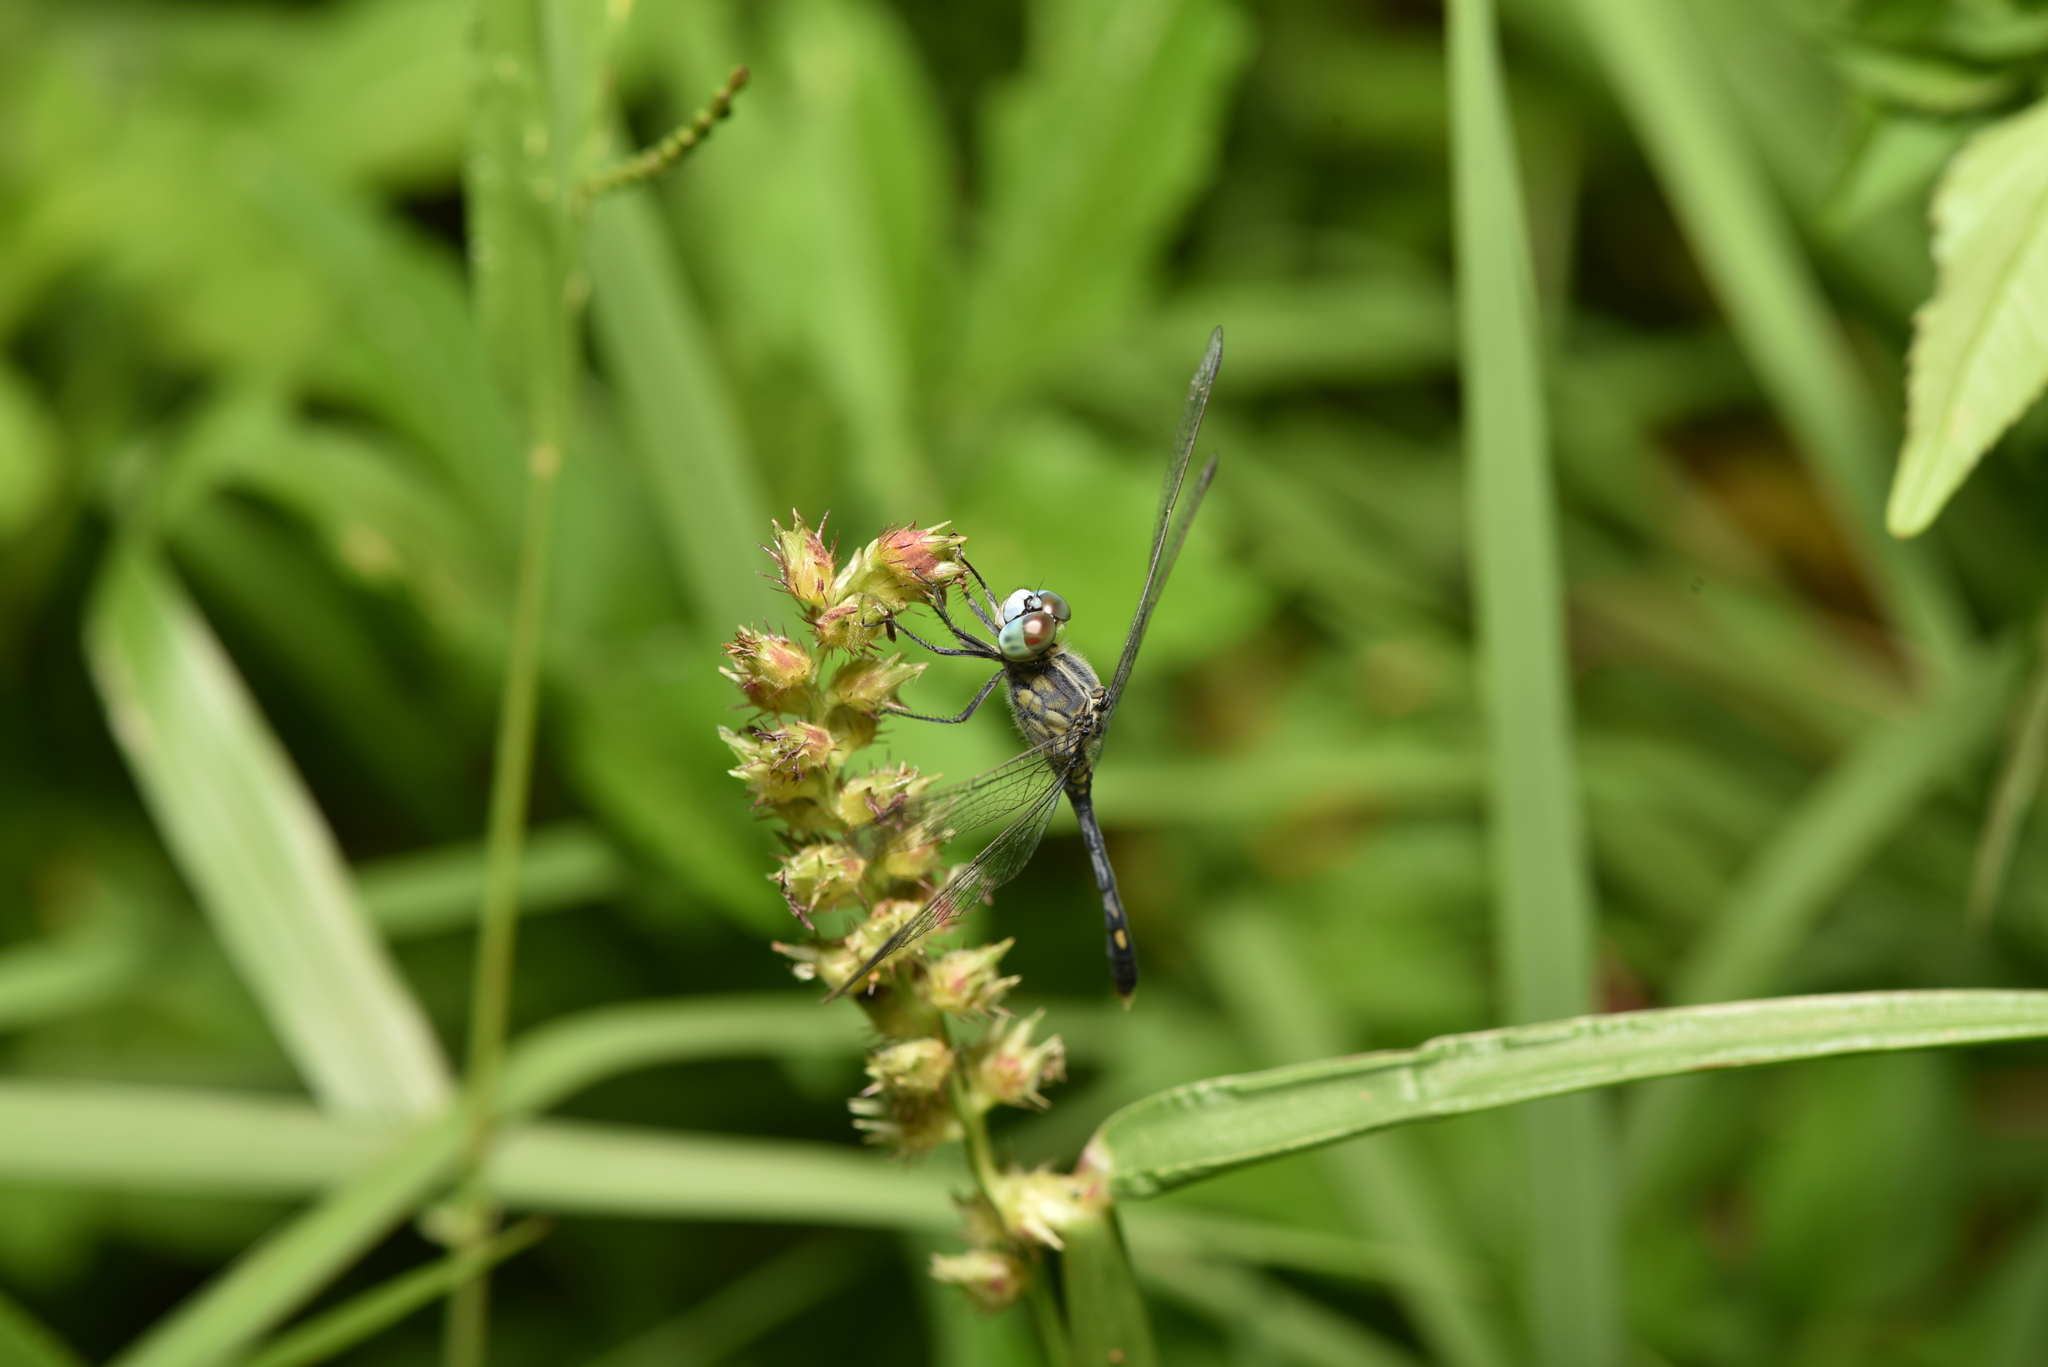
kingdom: Animalia
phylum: Arthropoda
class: Insecta
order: Odonata
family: Libellulidae
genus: Diplacodes
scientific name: Diplacodes trivialis
